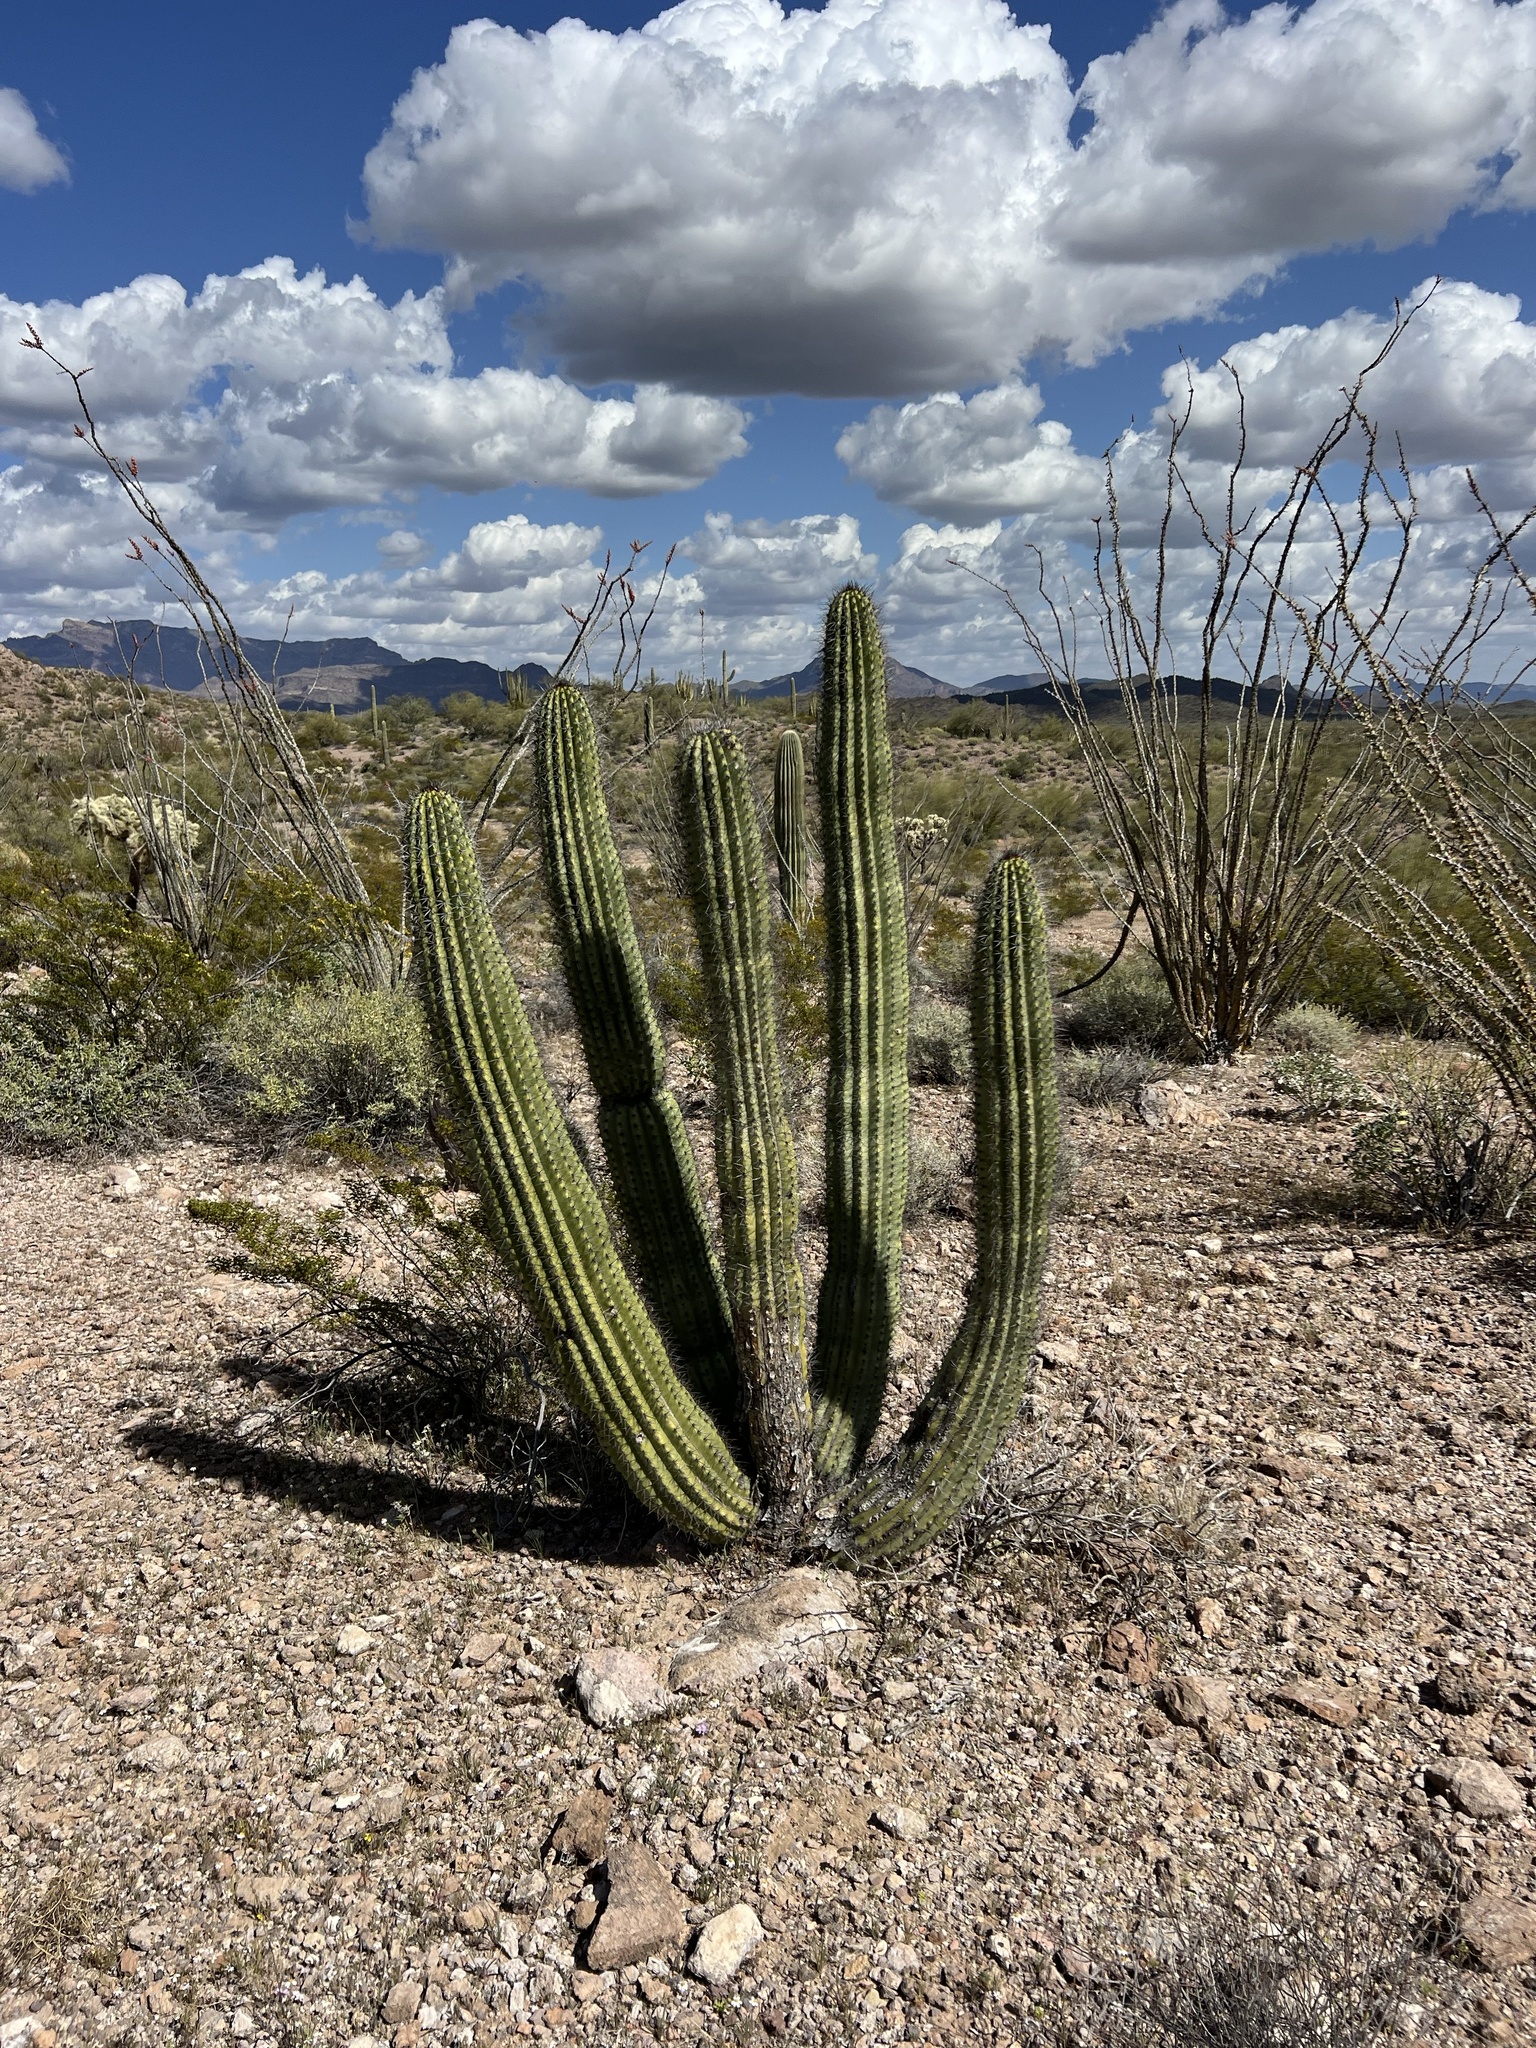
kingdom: Plantae
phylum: Tracheophyta
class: Magnoliopsida
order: Caryophyllales
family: Cactaceae
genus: Stenocereus
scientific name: Stenocereus thurberi
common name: Organ pipe cactus
